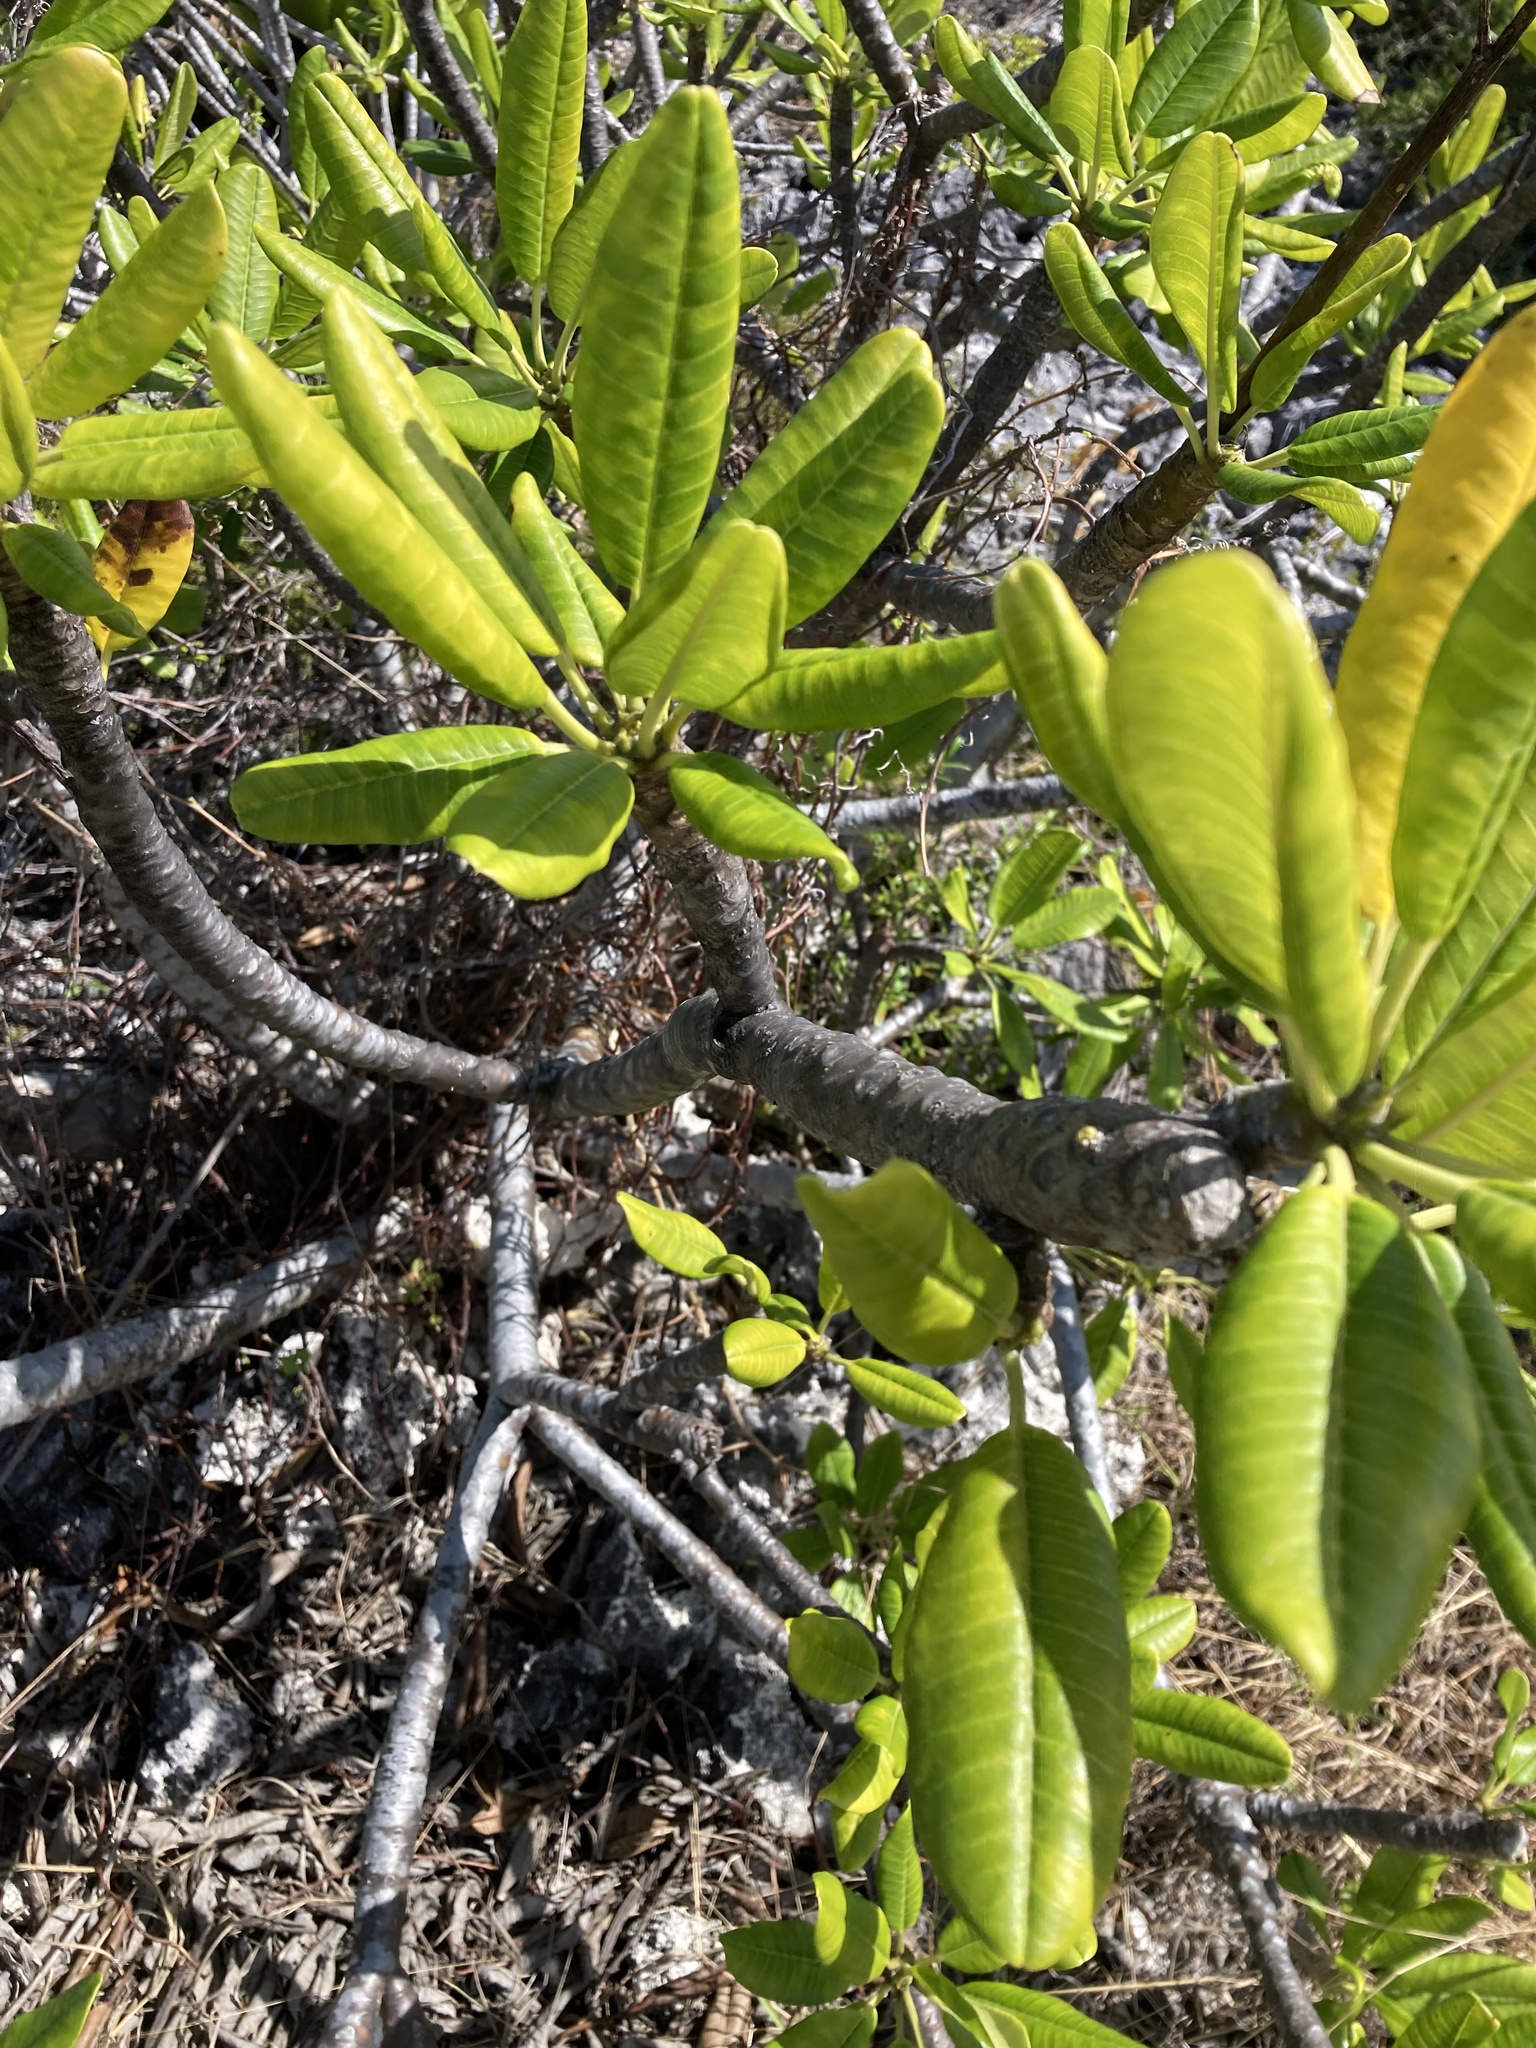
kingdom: Plantae
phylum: Tracheophyta
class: Magnoliopsida
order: Gentianales
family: Apocynaceae
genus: Plumeria
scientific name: Plumeria obtusa
